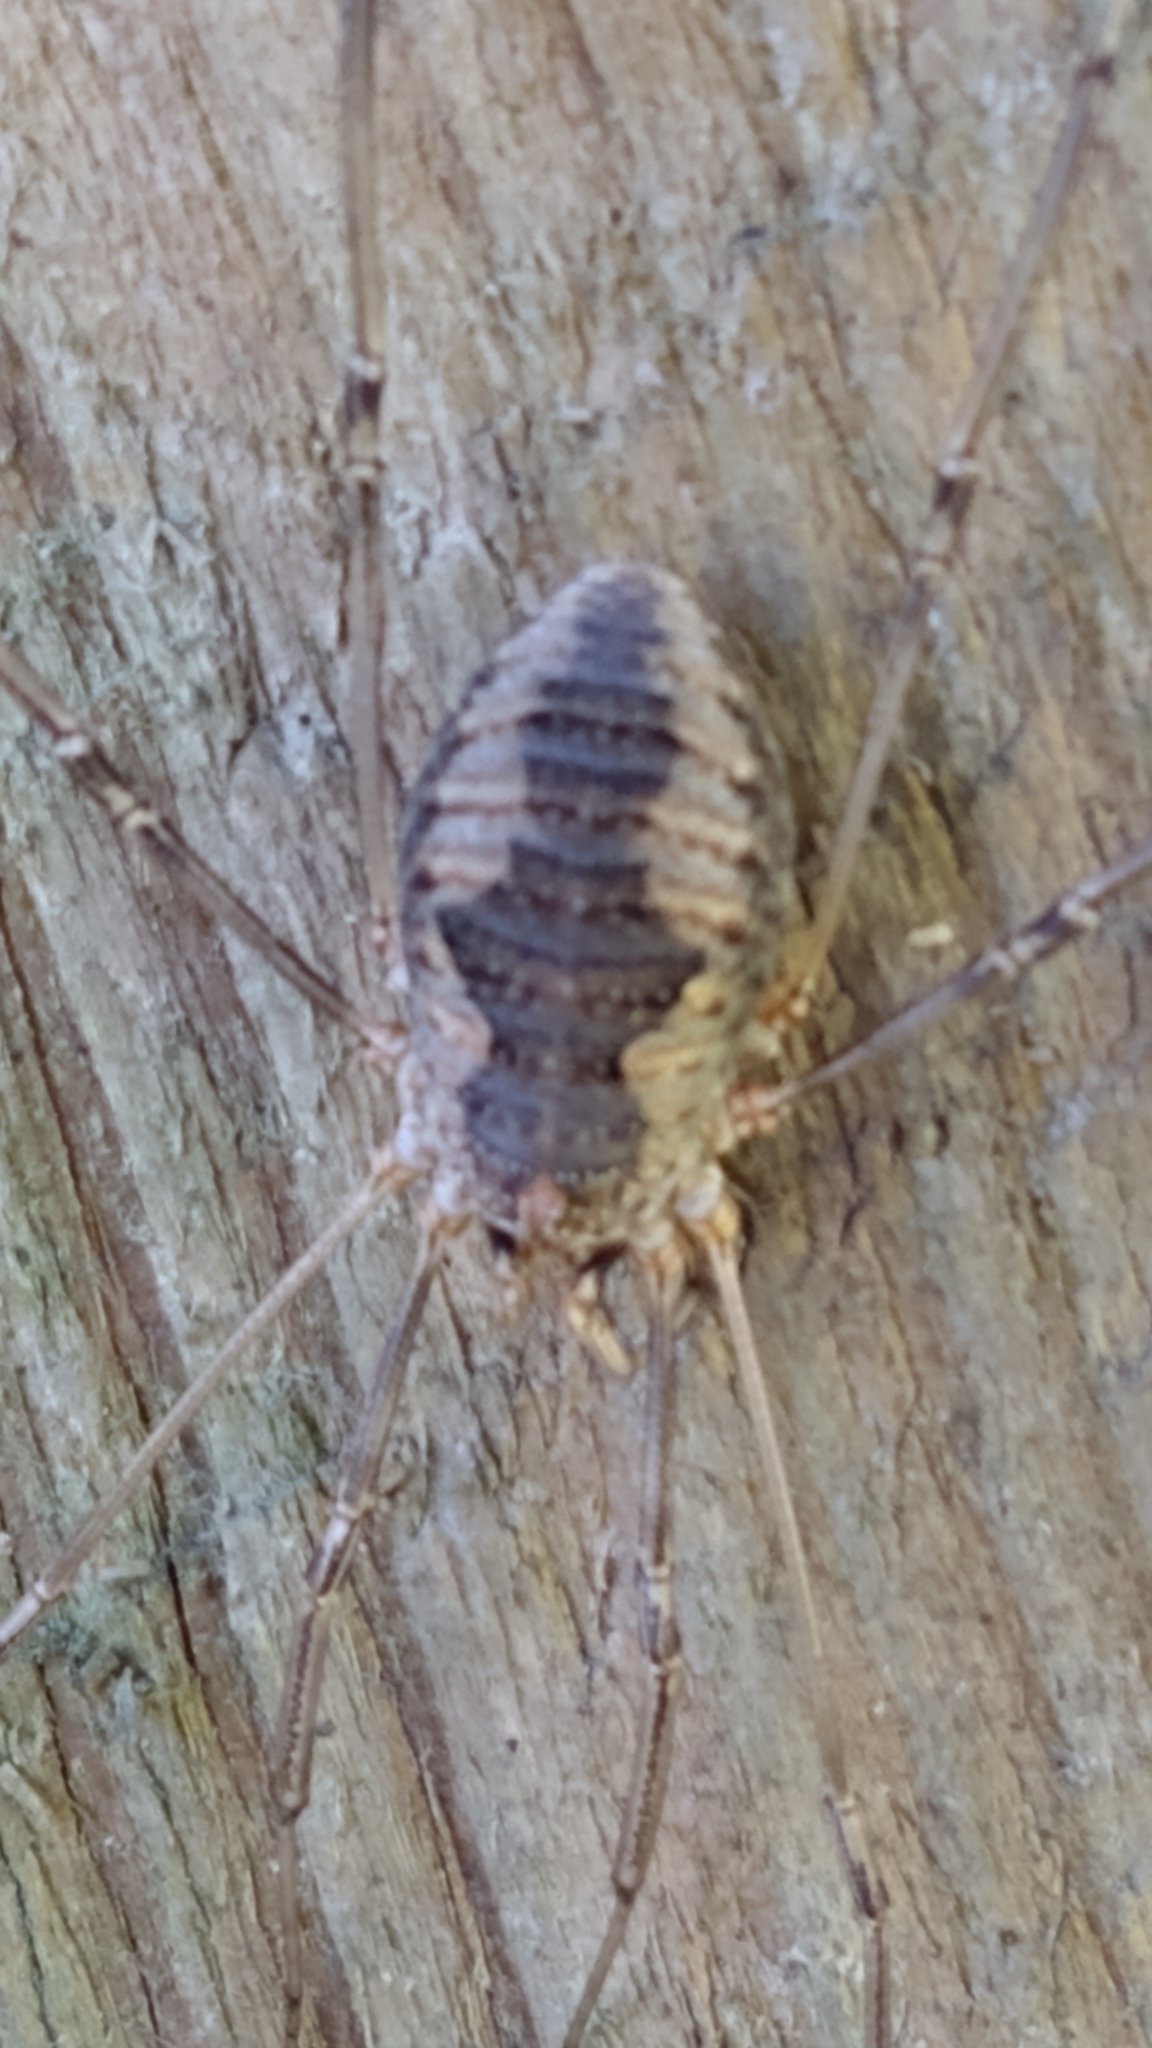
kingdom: Animalia
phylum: Arthropoda
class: Arachnida
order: Opiliones
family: Phalangiidae
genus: Phalangium
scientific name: Phalangium opilio
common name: Daddy longleg
